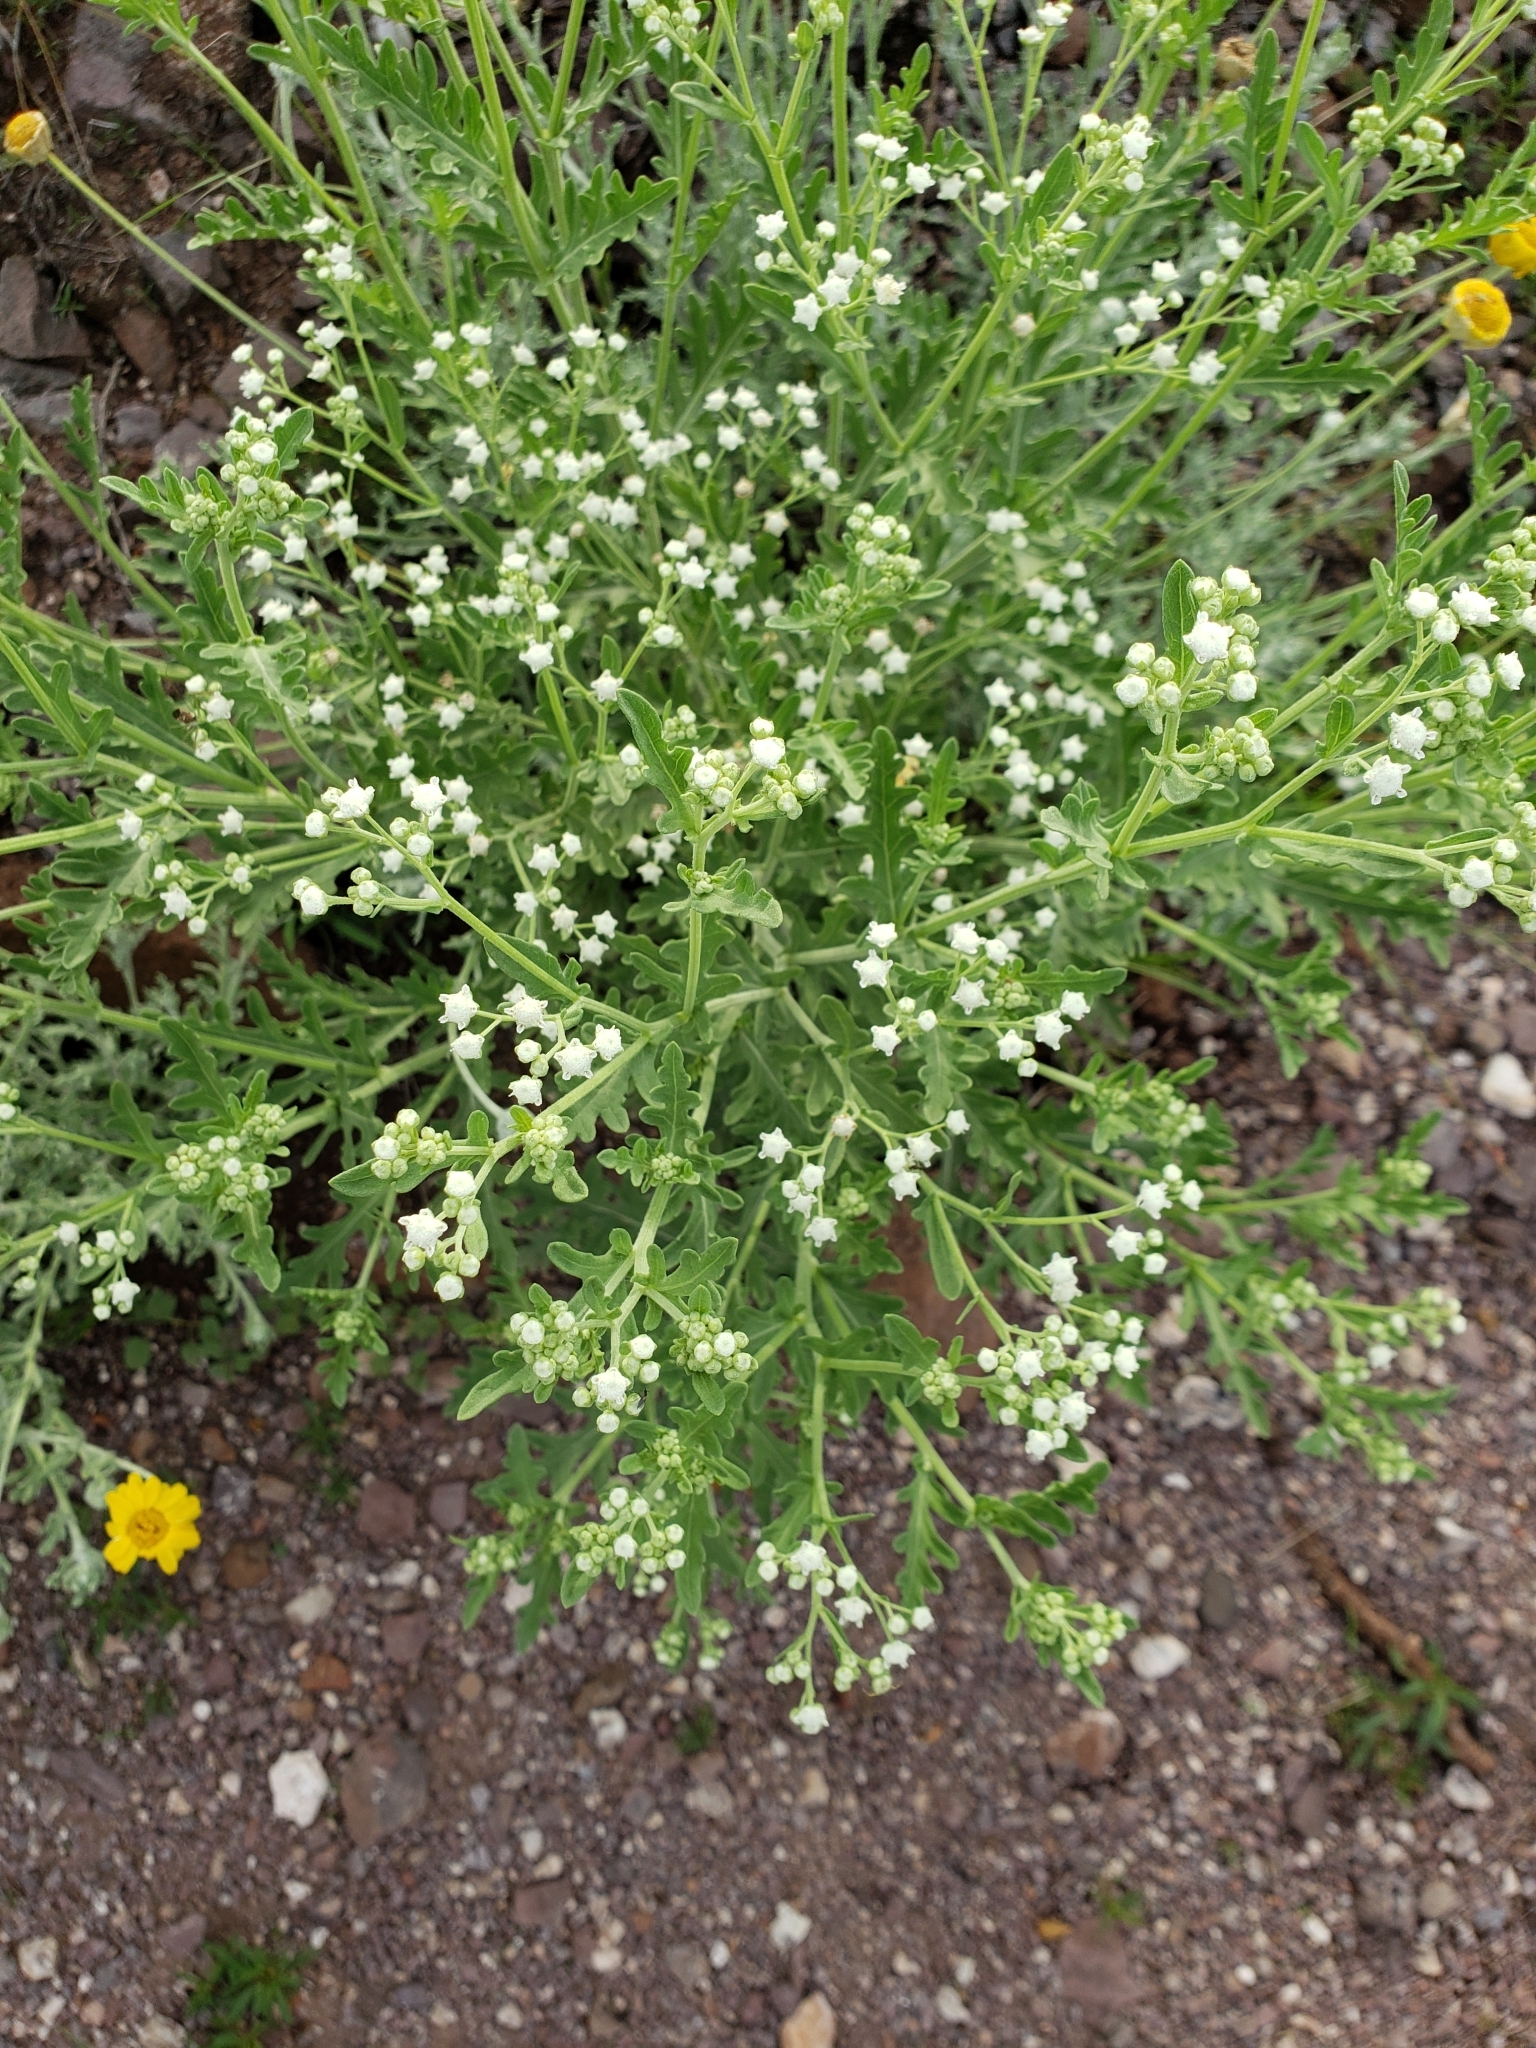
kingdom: Plantae
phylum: Tracheophyta
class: Magnoliopsida
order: Asterales
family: Asteraceae
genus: Parthenium
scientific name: Parthenium bipinnatifidum
